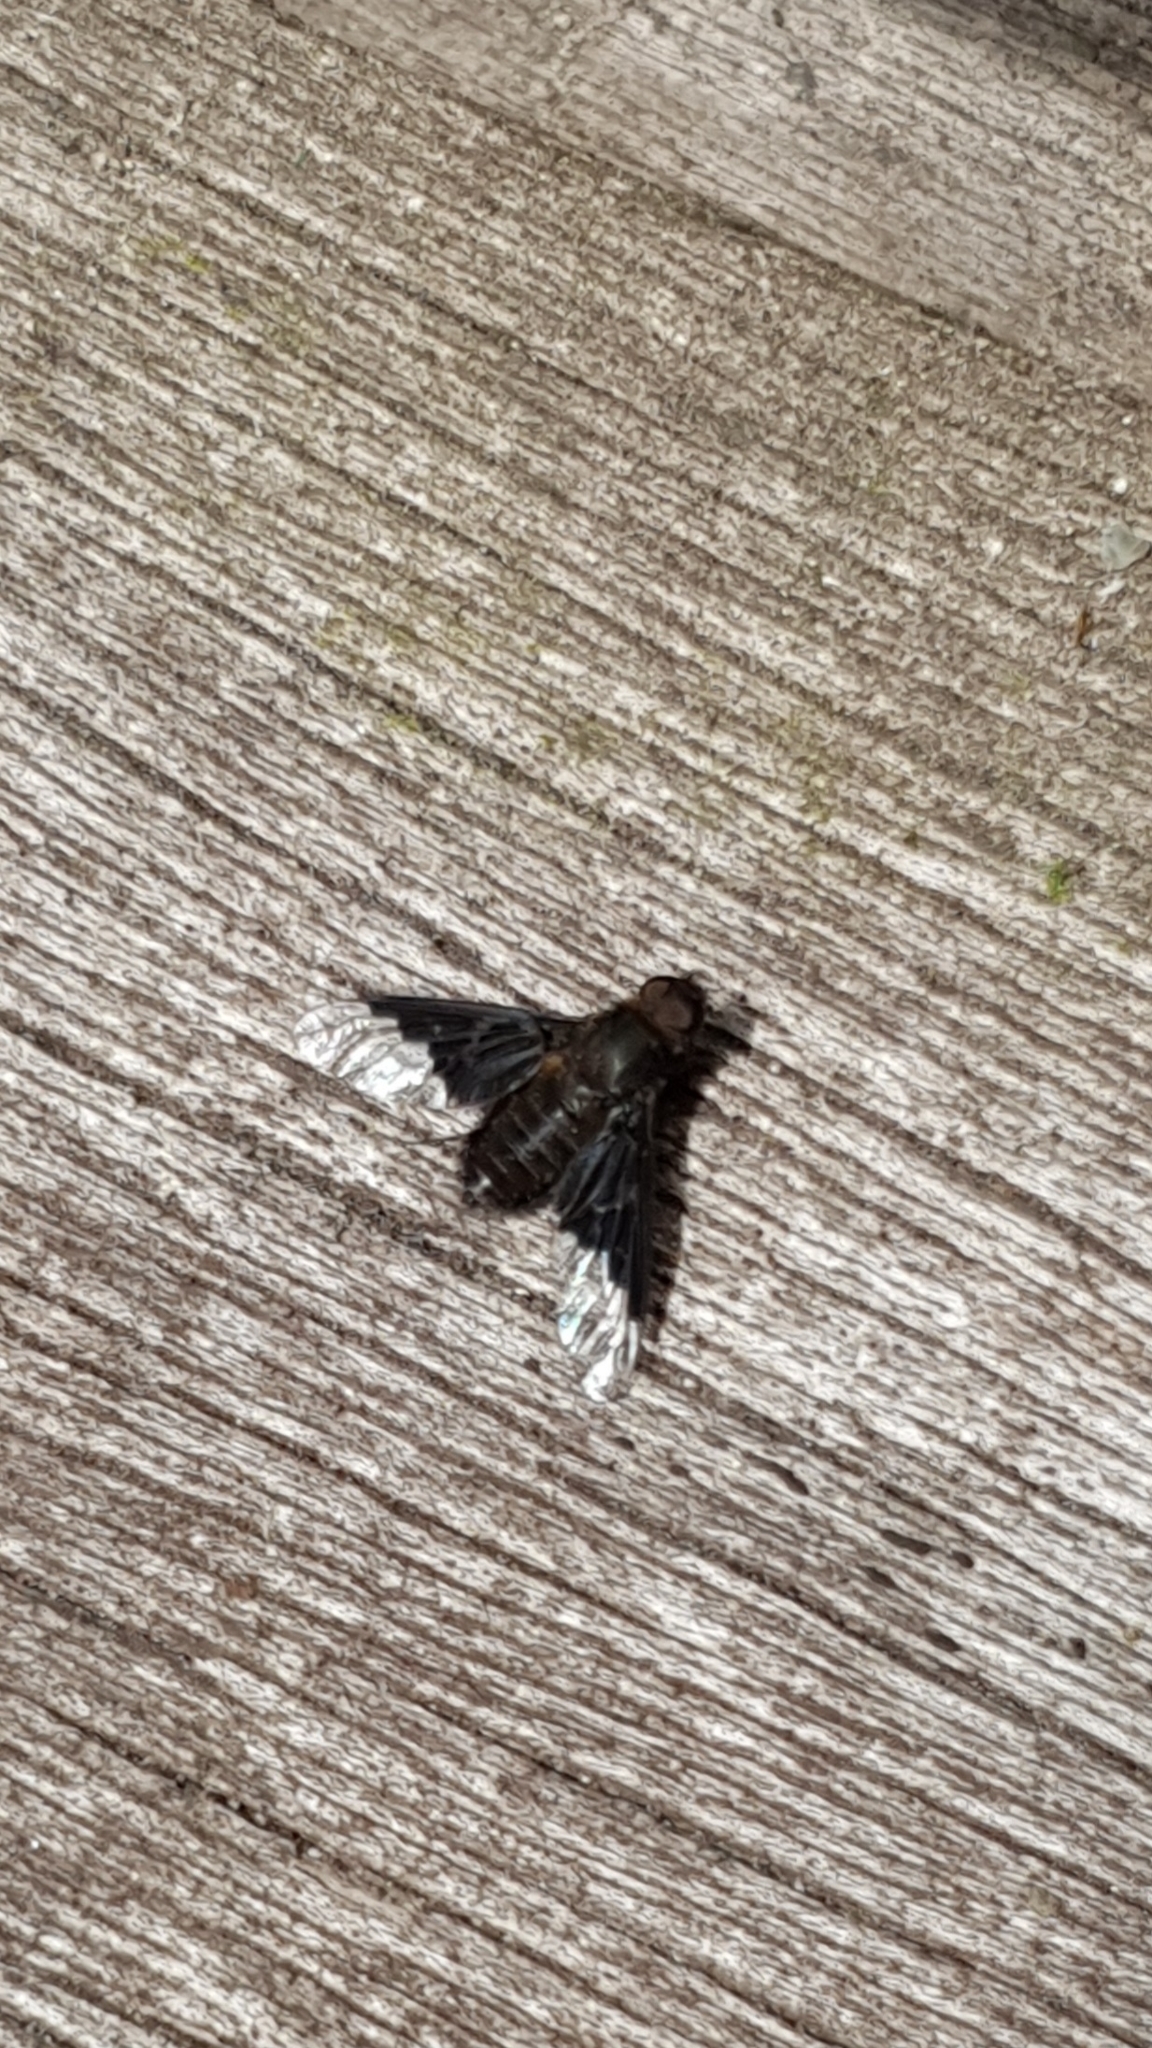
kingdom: Animalia
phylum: Arthropoda
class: Insecta
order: Diptera
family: Bombyliidae
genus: Hemipenthes
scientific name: Hemipenthes morio
